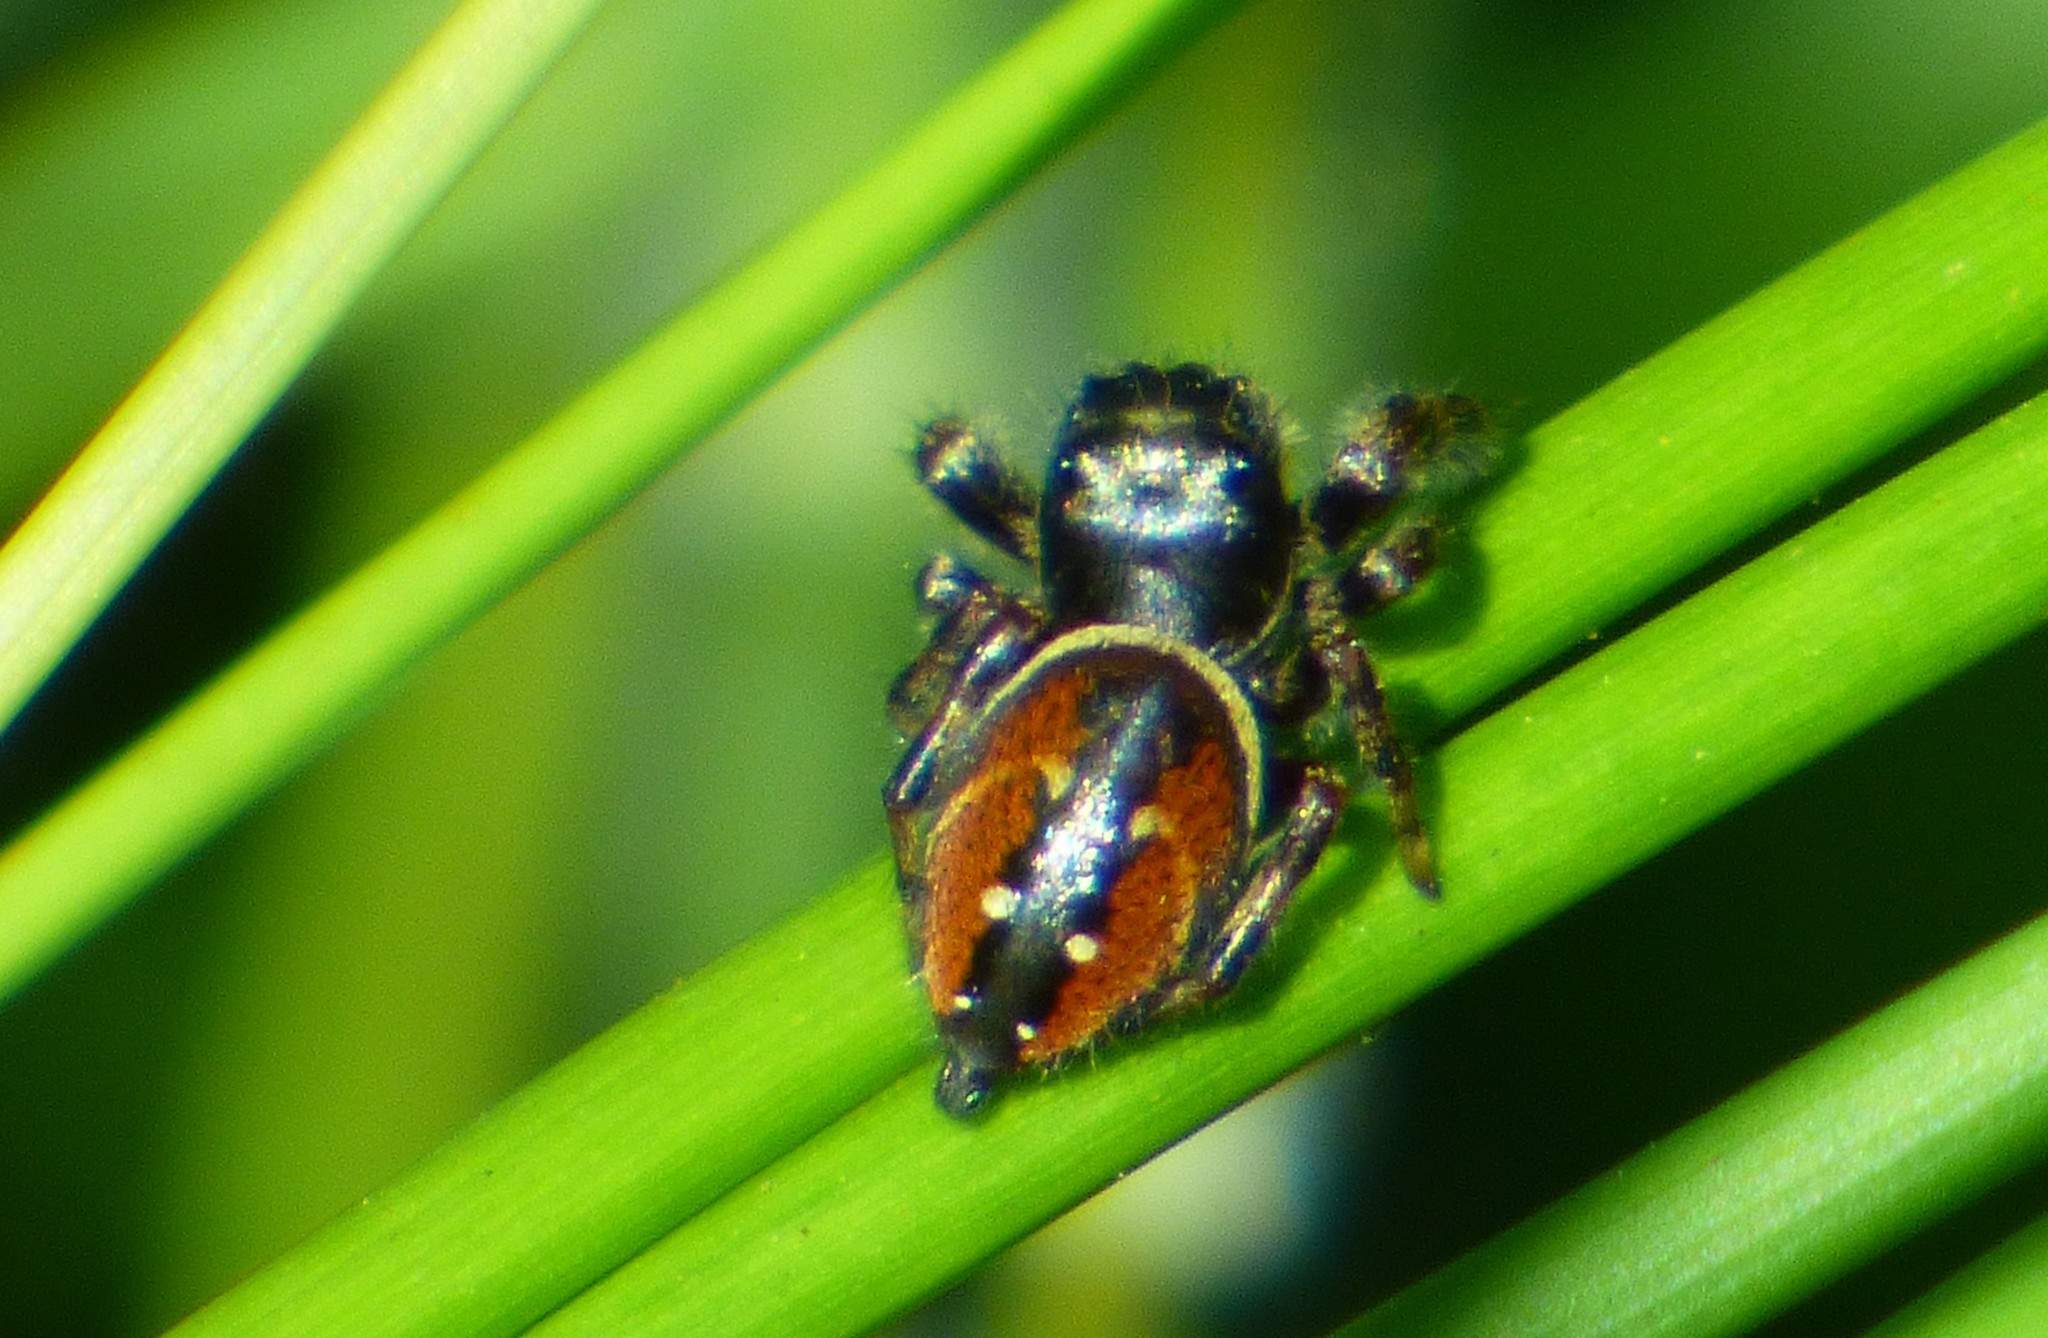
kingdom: Animalia
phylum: Arthropoda
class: Arachnida
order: Araneae
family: Salticidae
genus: Phidippus
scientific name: Phidippus clarus
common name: Brilliant jumping spider
